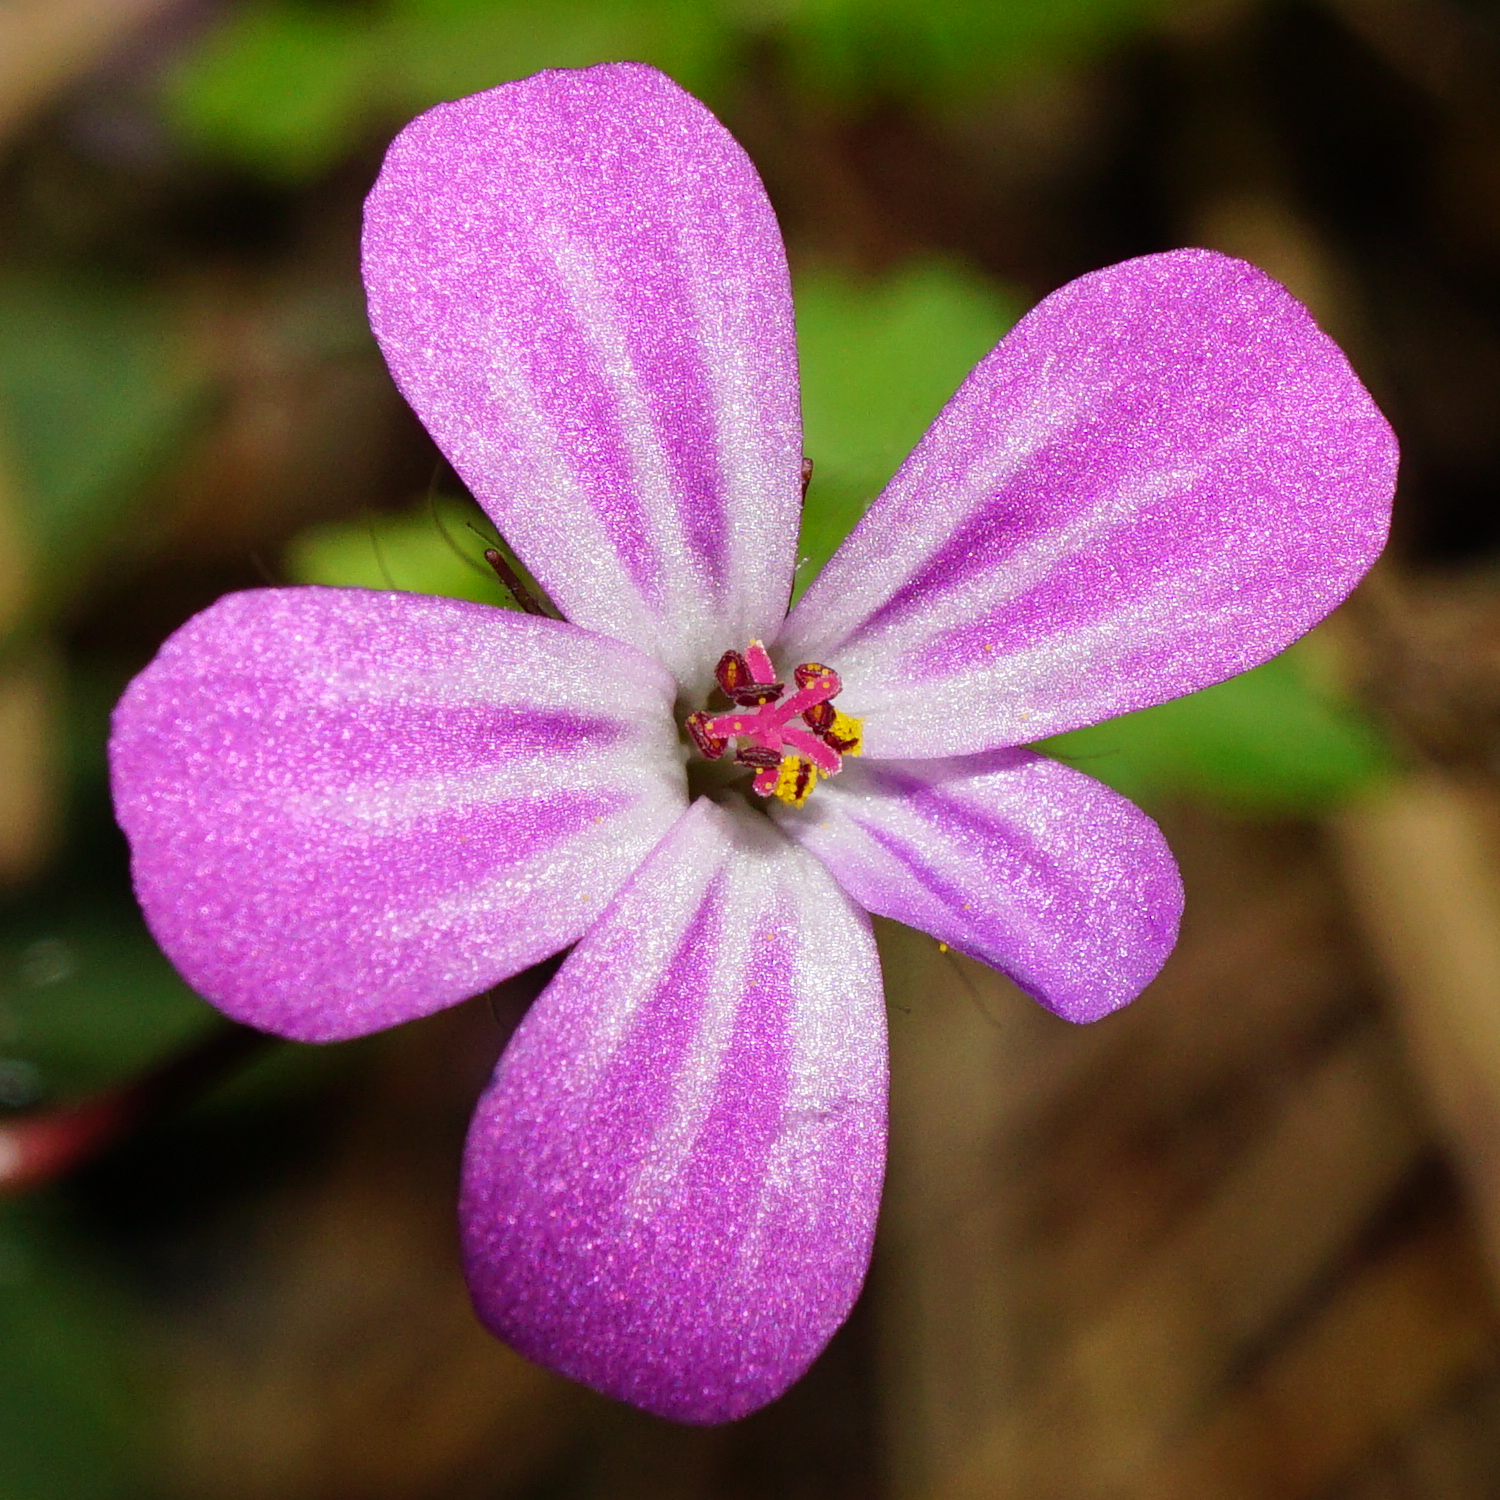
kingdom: Plantae
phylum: Tracheophyta
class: Magnoliopsida
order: Geraniales
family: Geraniaceae
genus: Geranium
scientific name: Geranium robertianum
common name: Herb-robert
